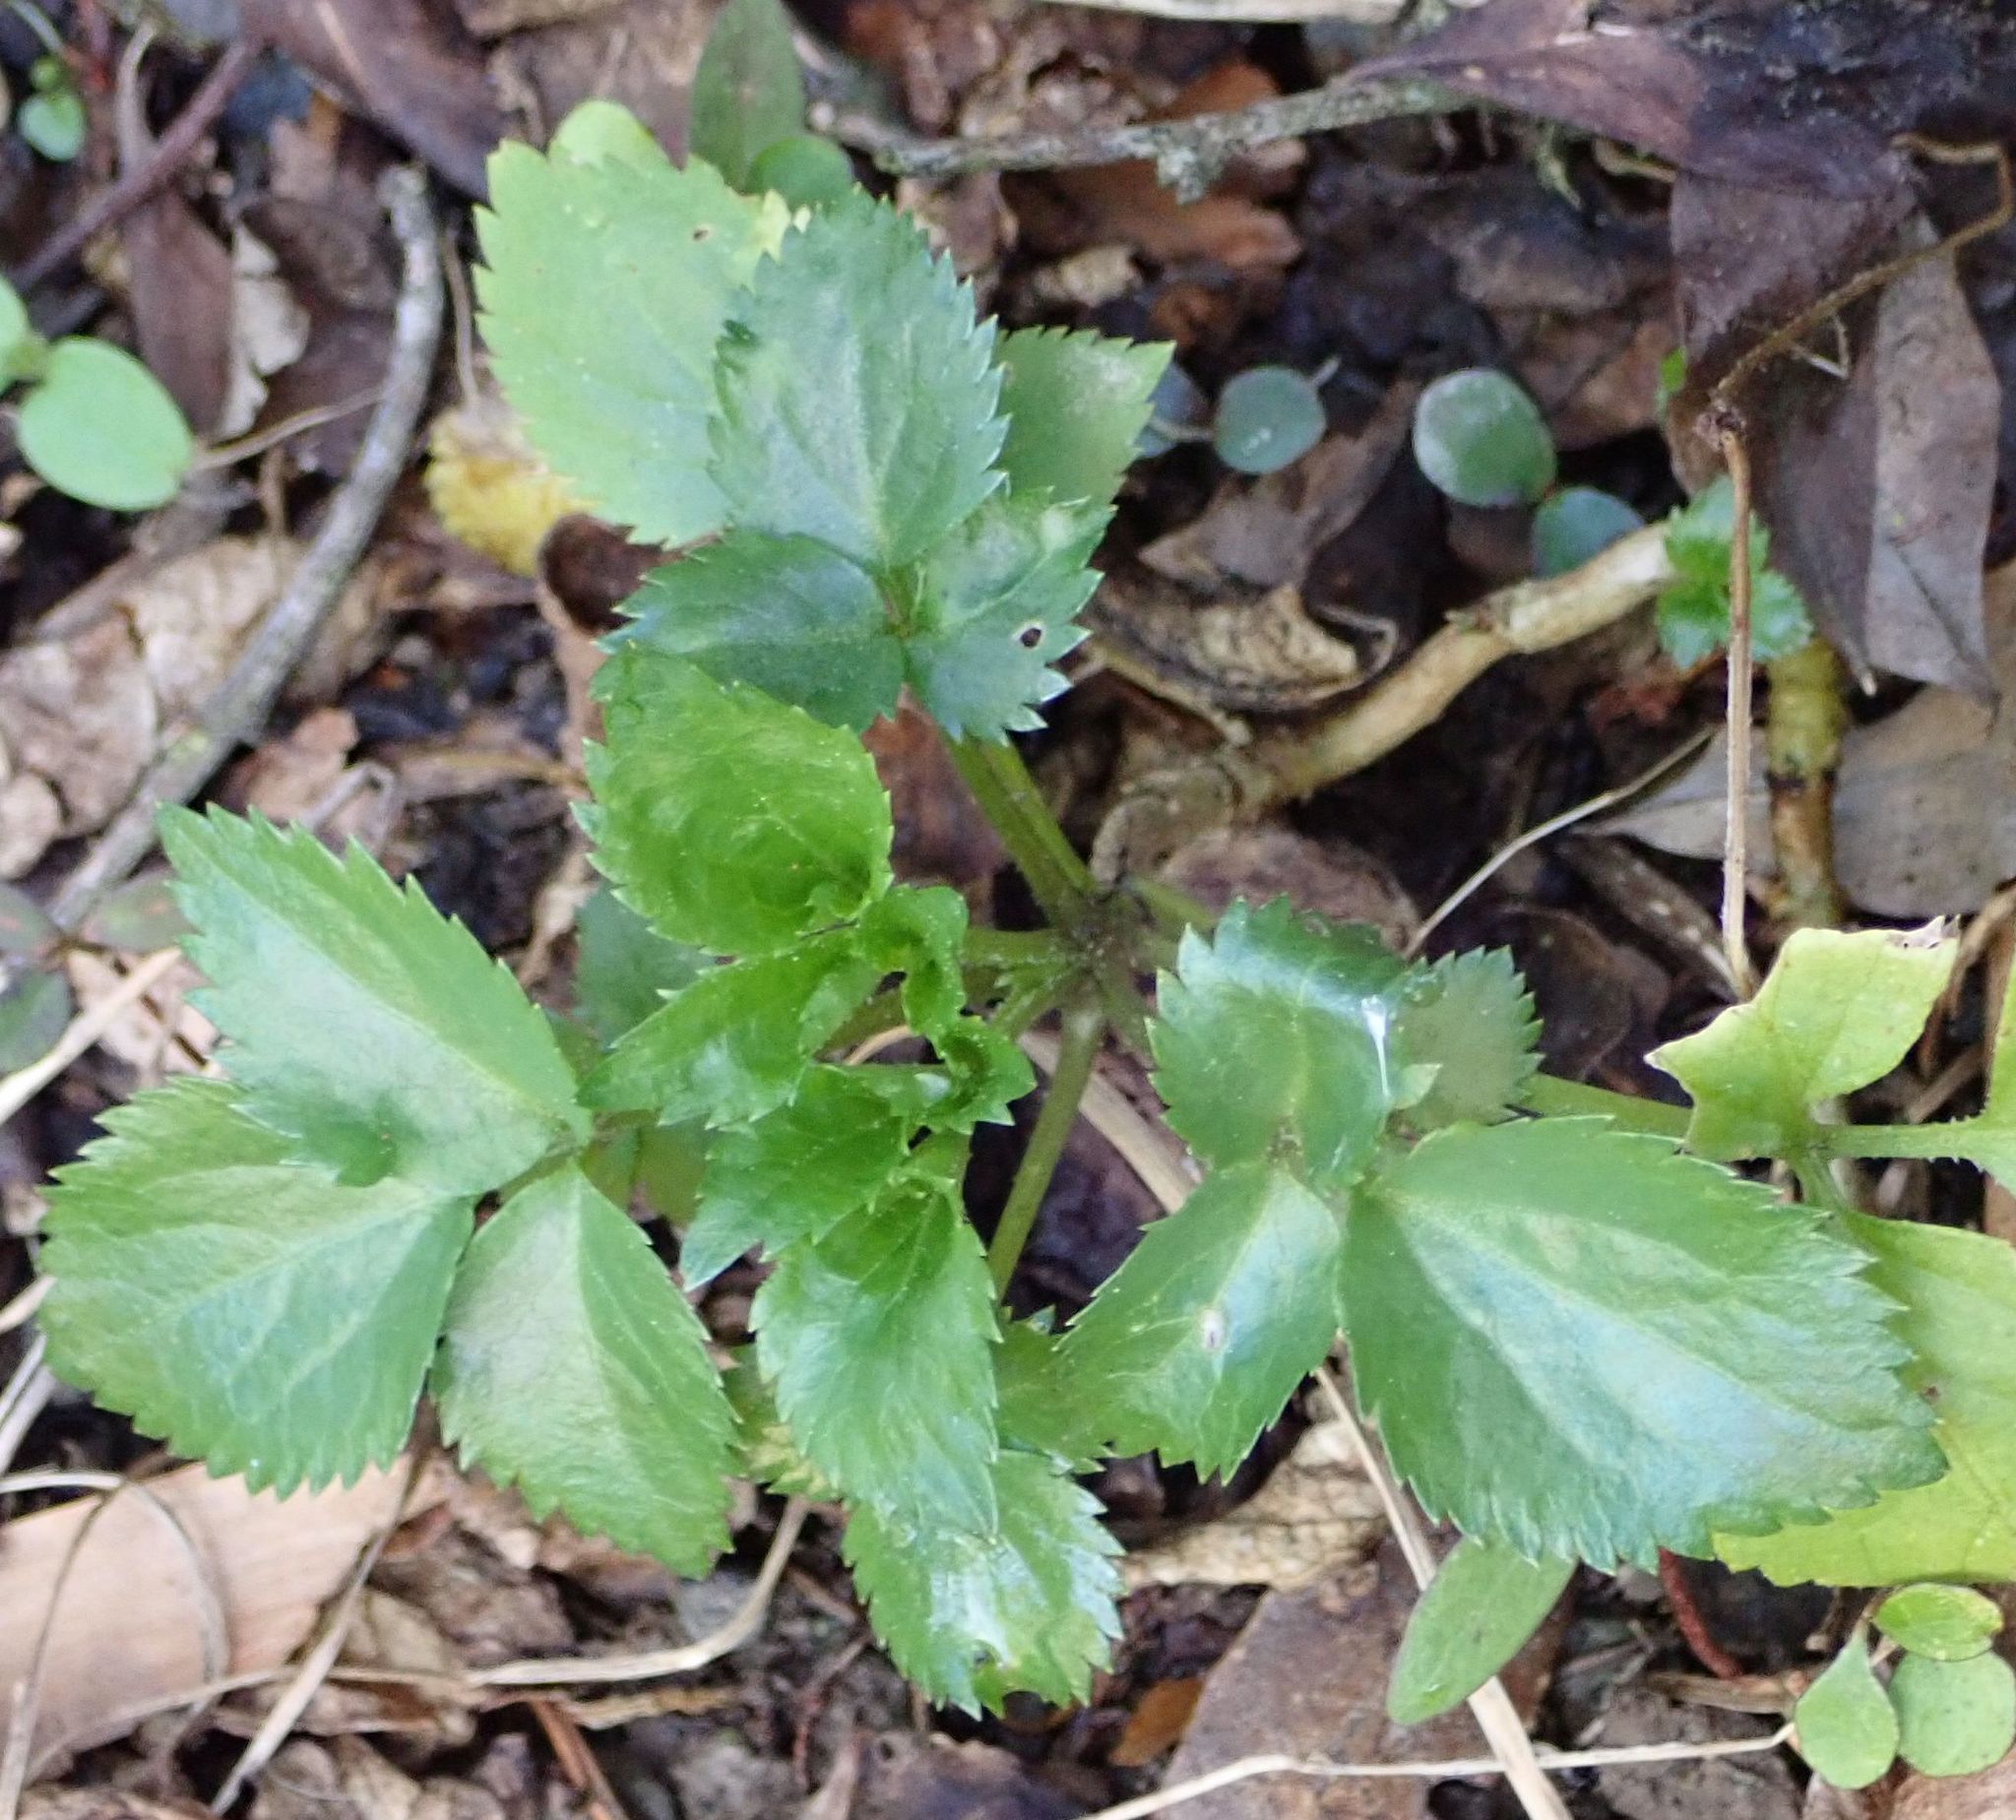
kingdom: Plantae
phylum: Tracheophyta
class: Magnoliopsida
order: Dipsacales
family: Viburnaceae
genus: Sambucus
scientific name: Sambucus nigra
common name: Elder
